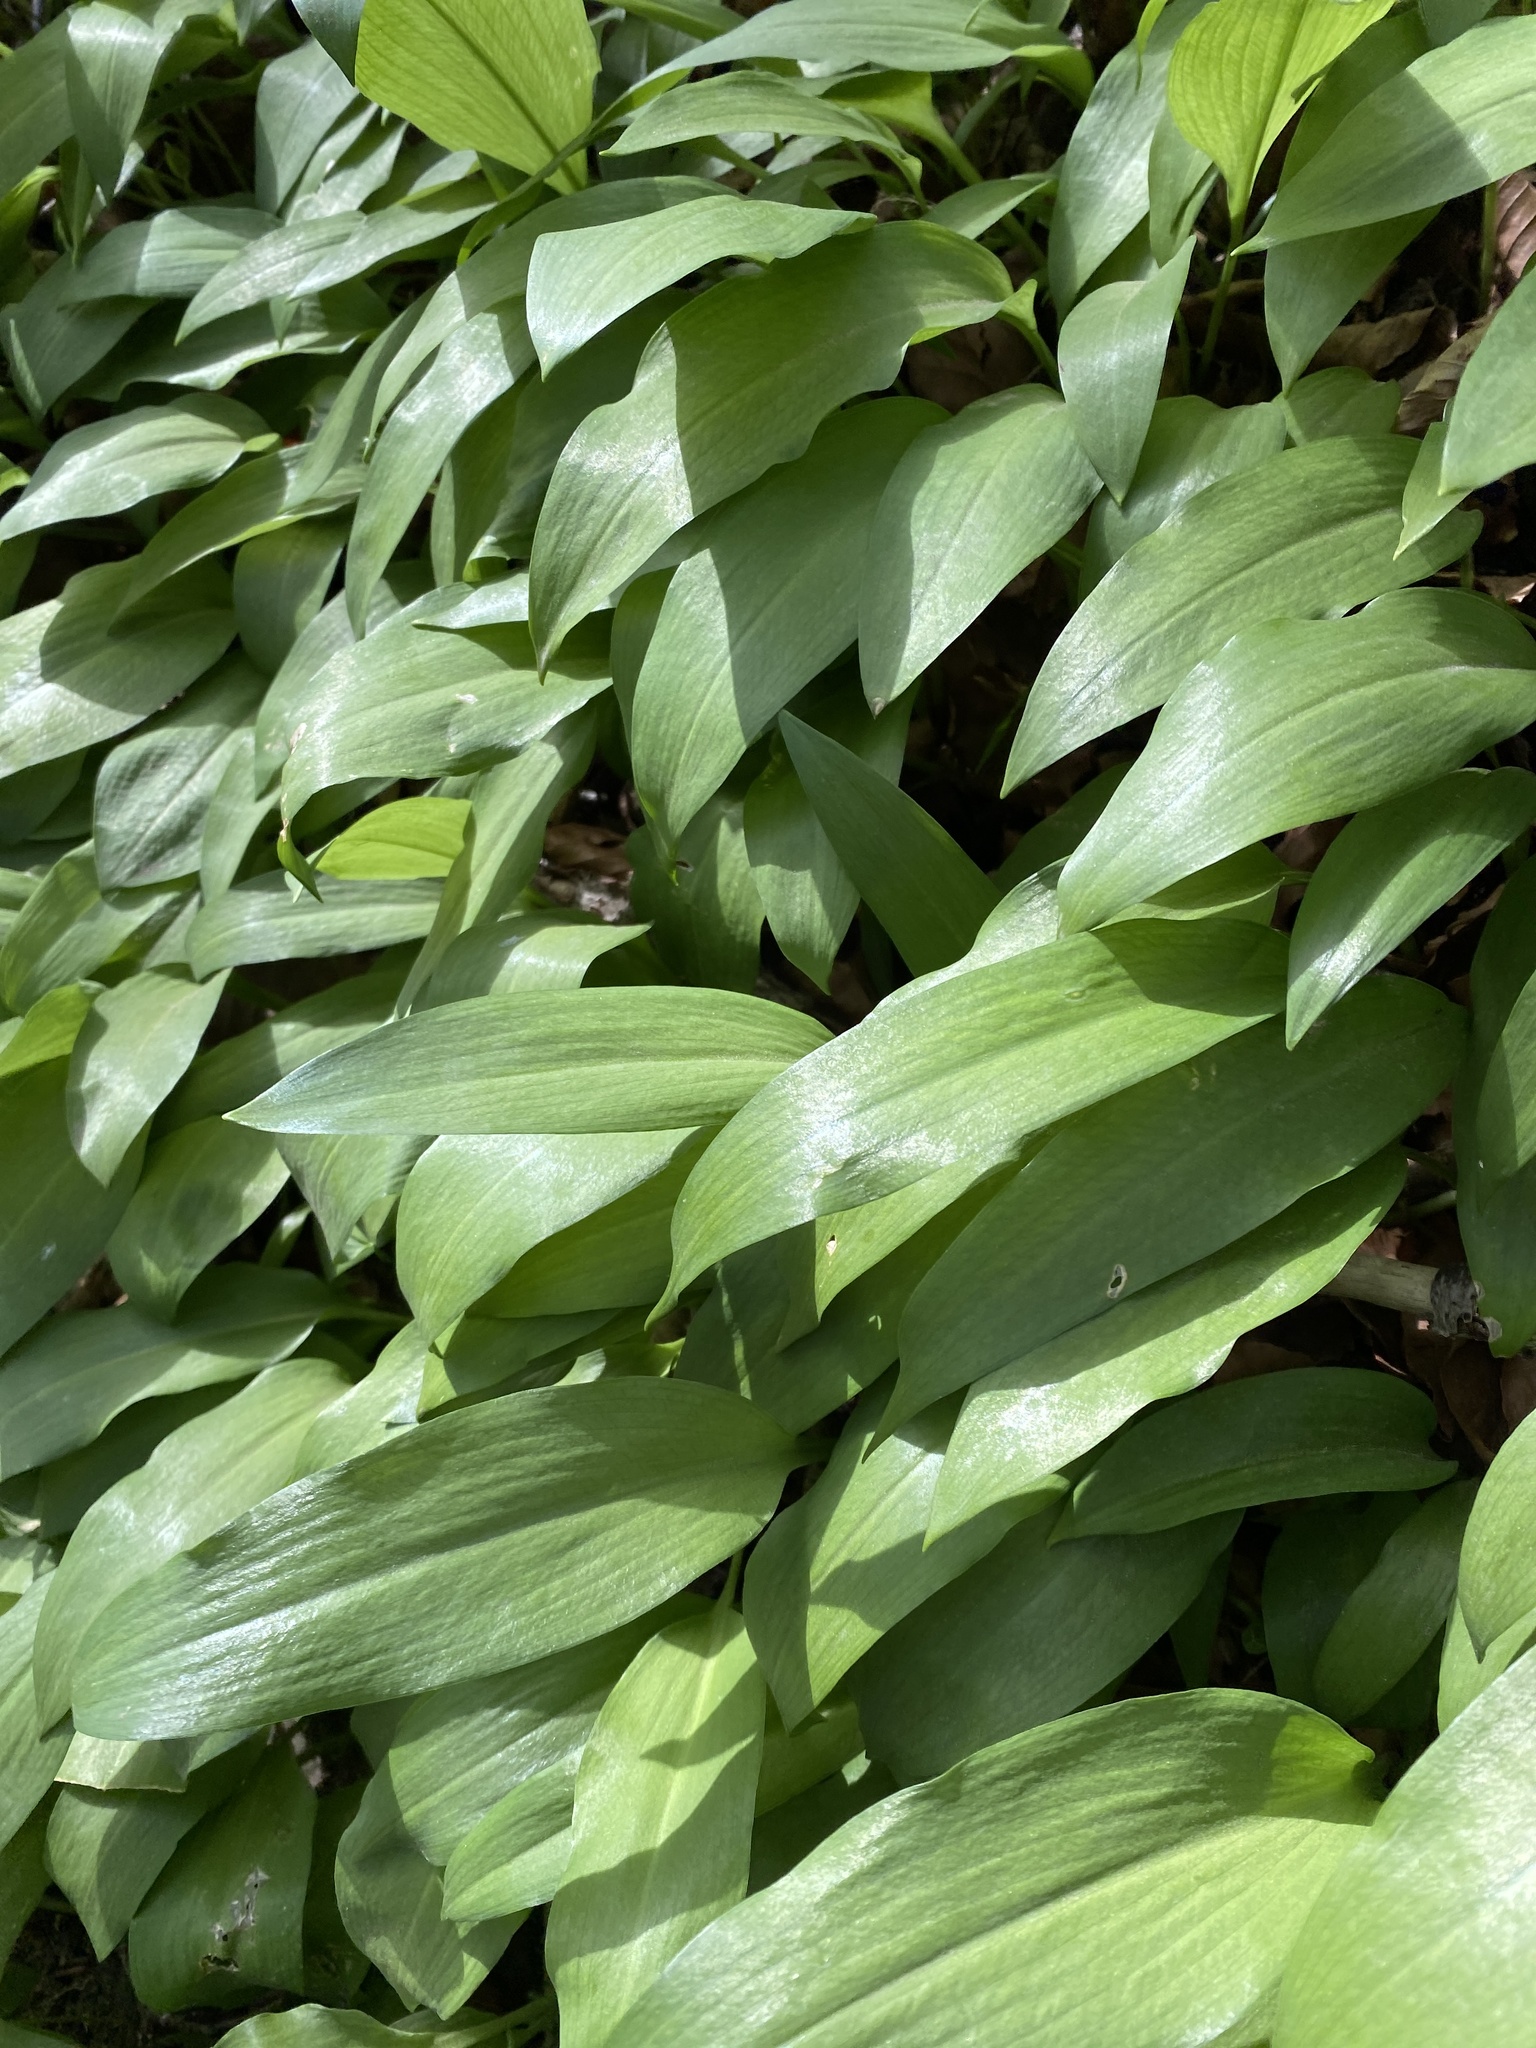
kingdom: Plantae
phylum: Tracheophyta
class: Liliopsida
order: Asparagales
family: Amaryllidaceae
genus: Allium
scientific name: Allium ursinum
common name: Ramsons
